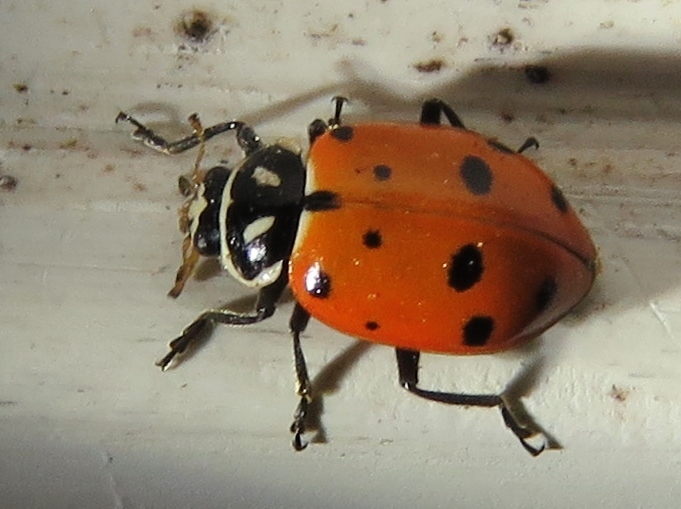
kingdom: Animalia
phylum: Arthropoda
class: Insecta
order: Coleoptera
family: Coccinellidae
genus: Hippodamia
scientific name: Hippodamia convergens
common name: Convergent lady beetle
